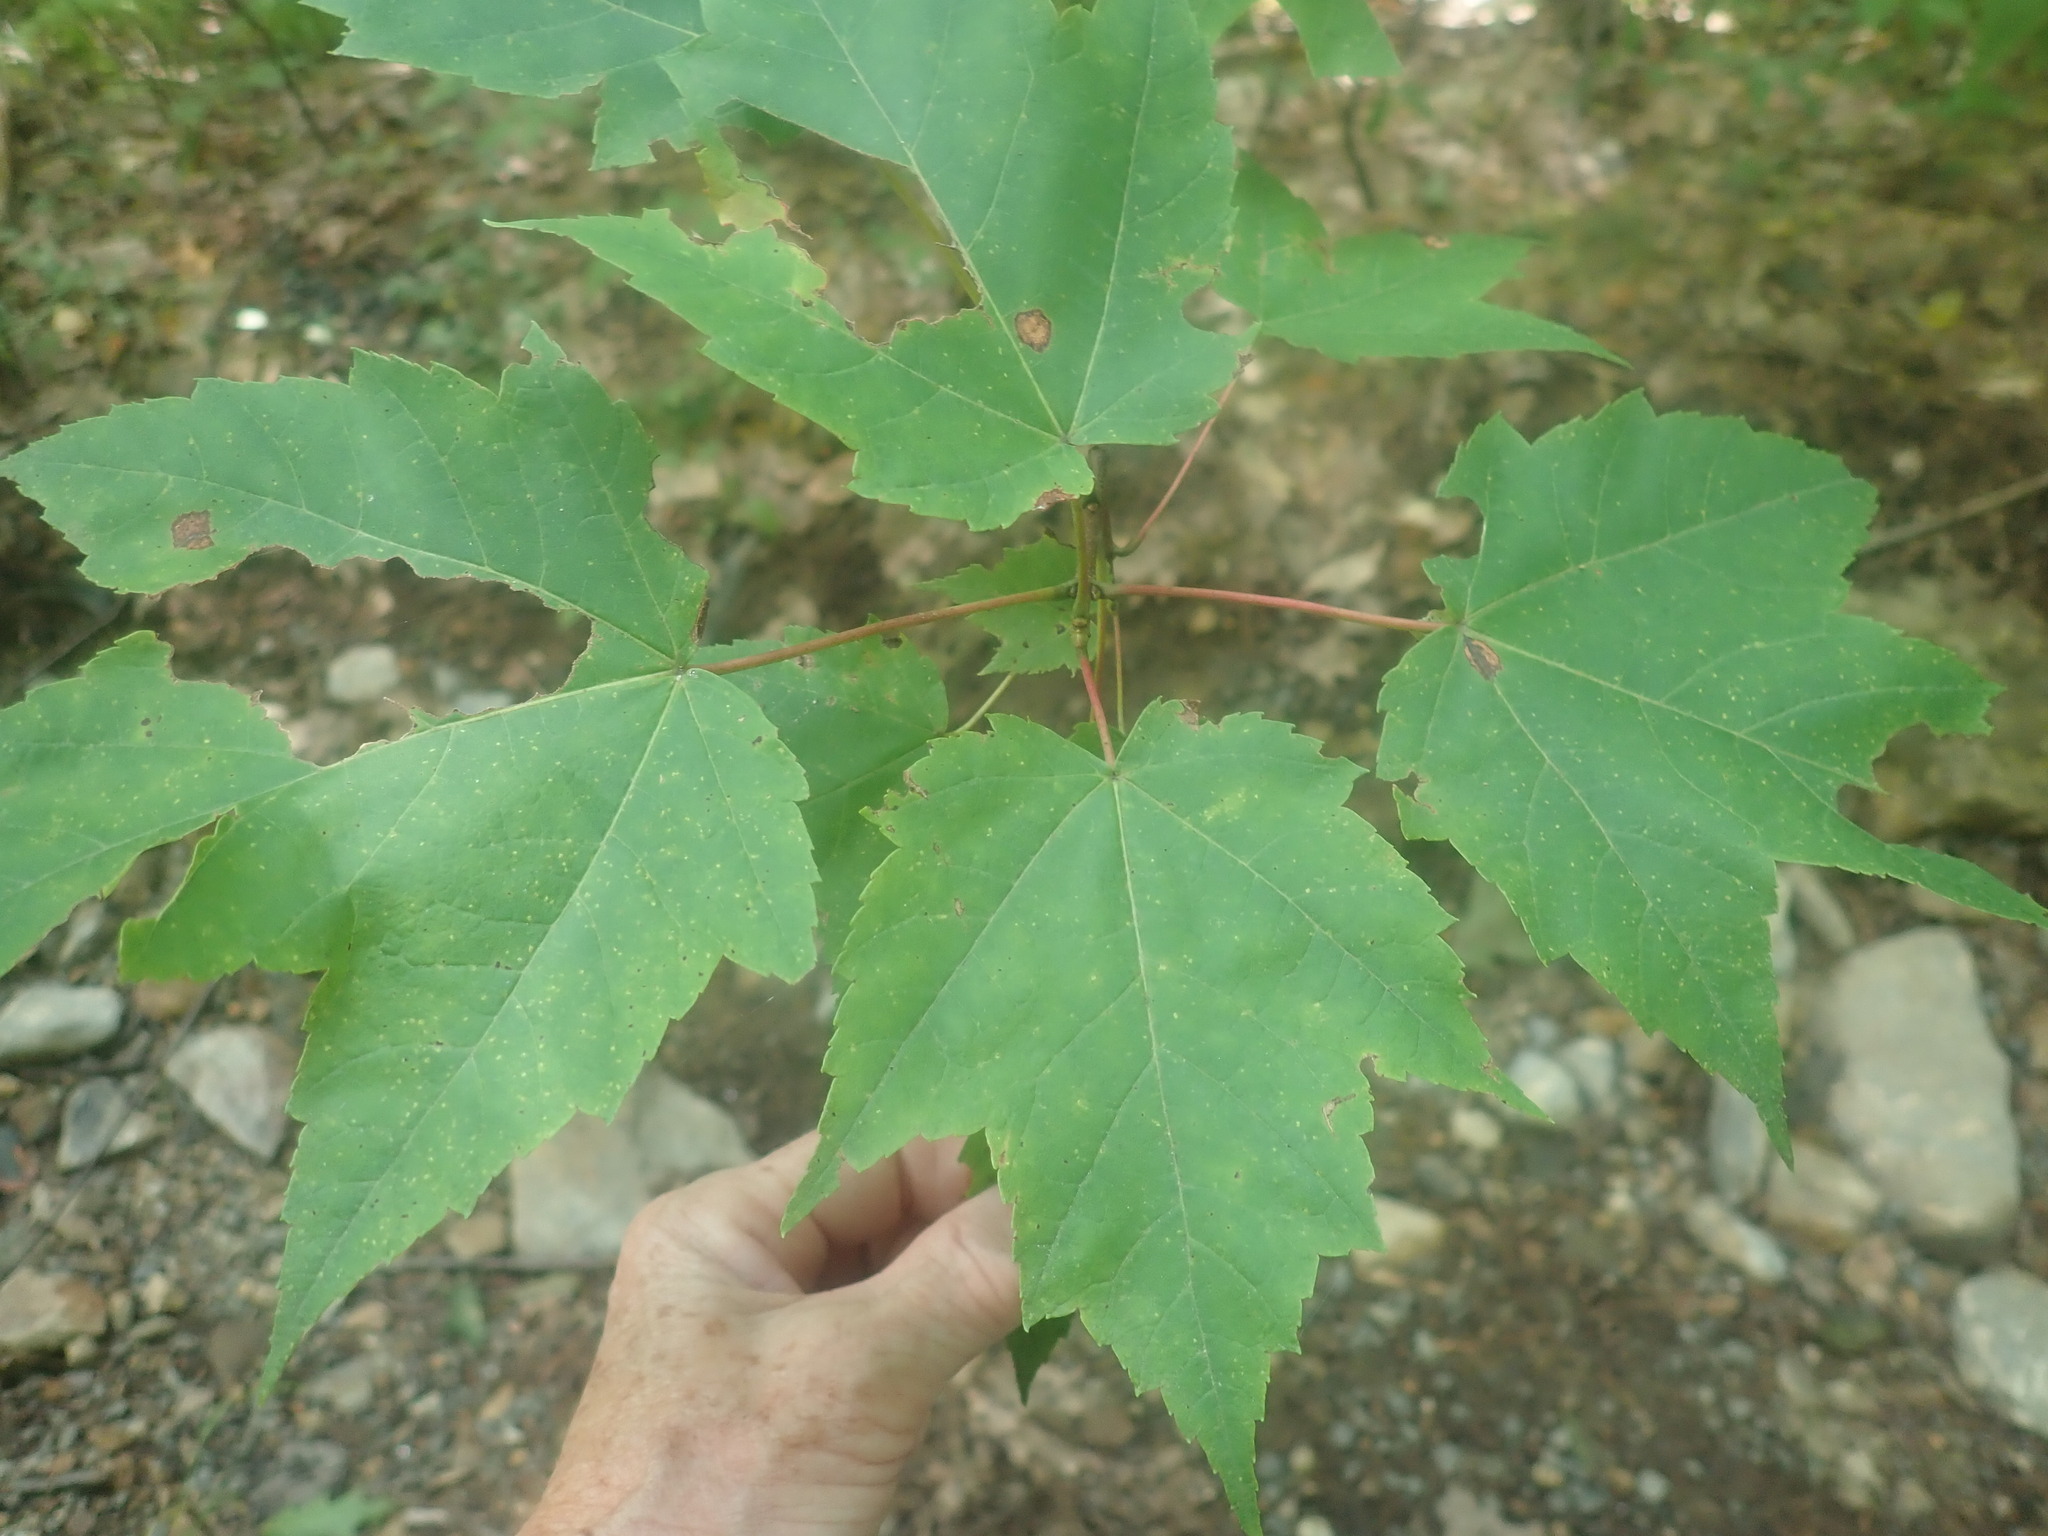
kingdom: Plantae
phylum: Tracheophyta
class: Magnoliopsida
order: Sapindales
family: Sapindaceae
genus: Acer
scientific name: Acer rubrum
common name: Red maple
